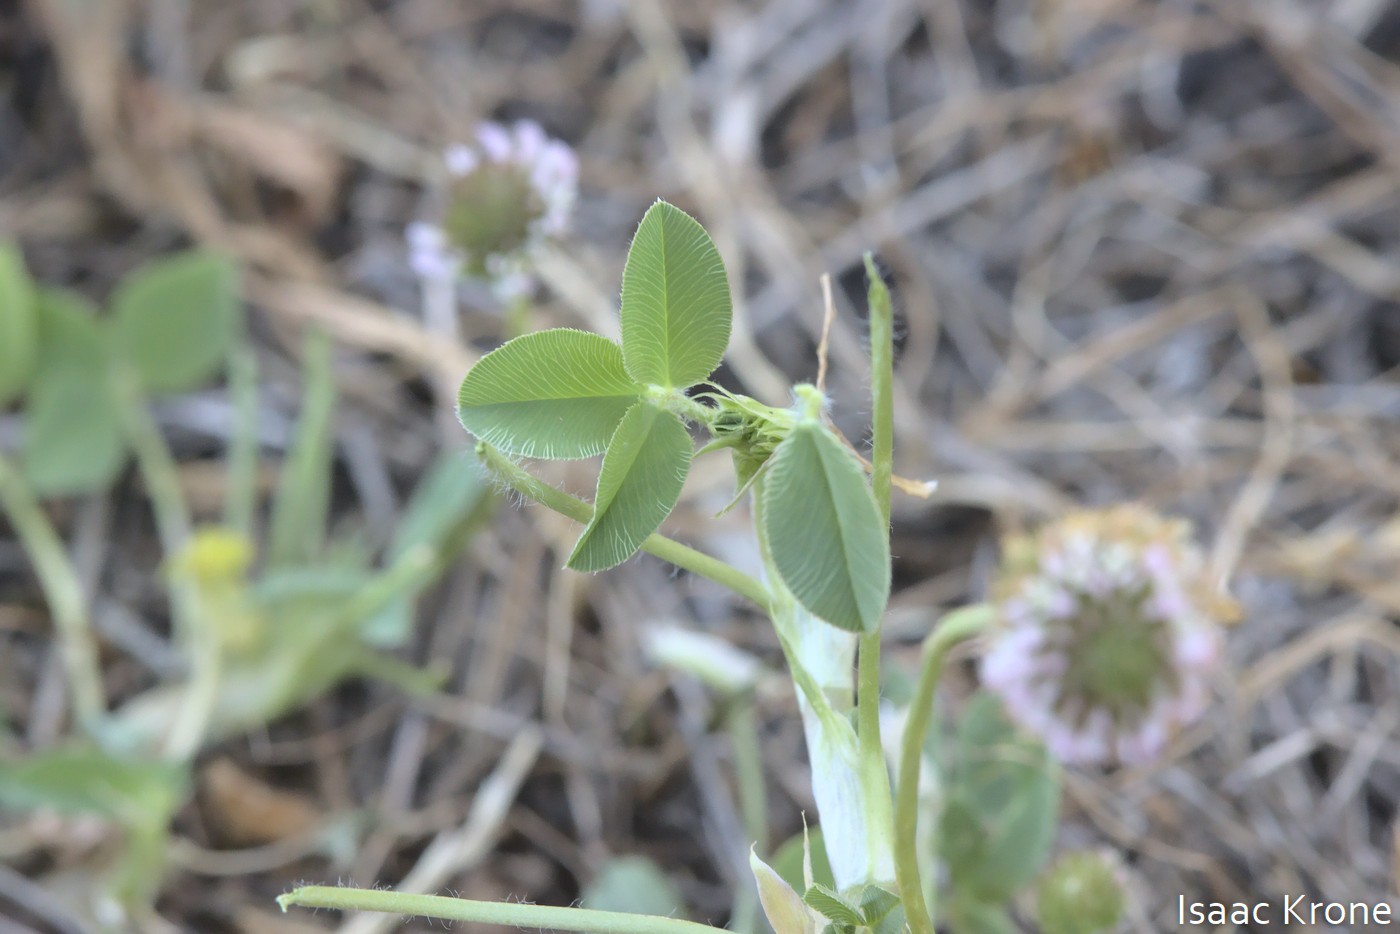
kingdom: Plantae
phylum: Tracheophyta
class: Magnoliopsida
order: Fabales
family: Fabaceae
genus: Trifolium
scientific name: Trifolium fragiferum
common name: Strawberry clover
